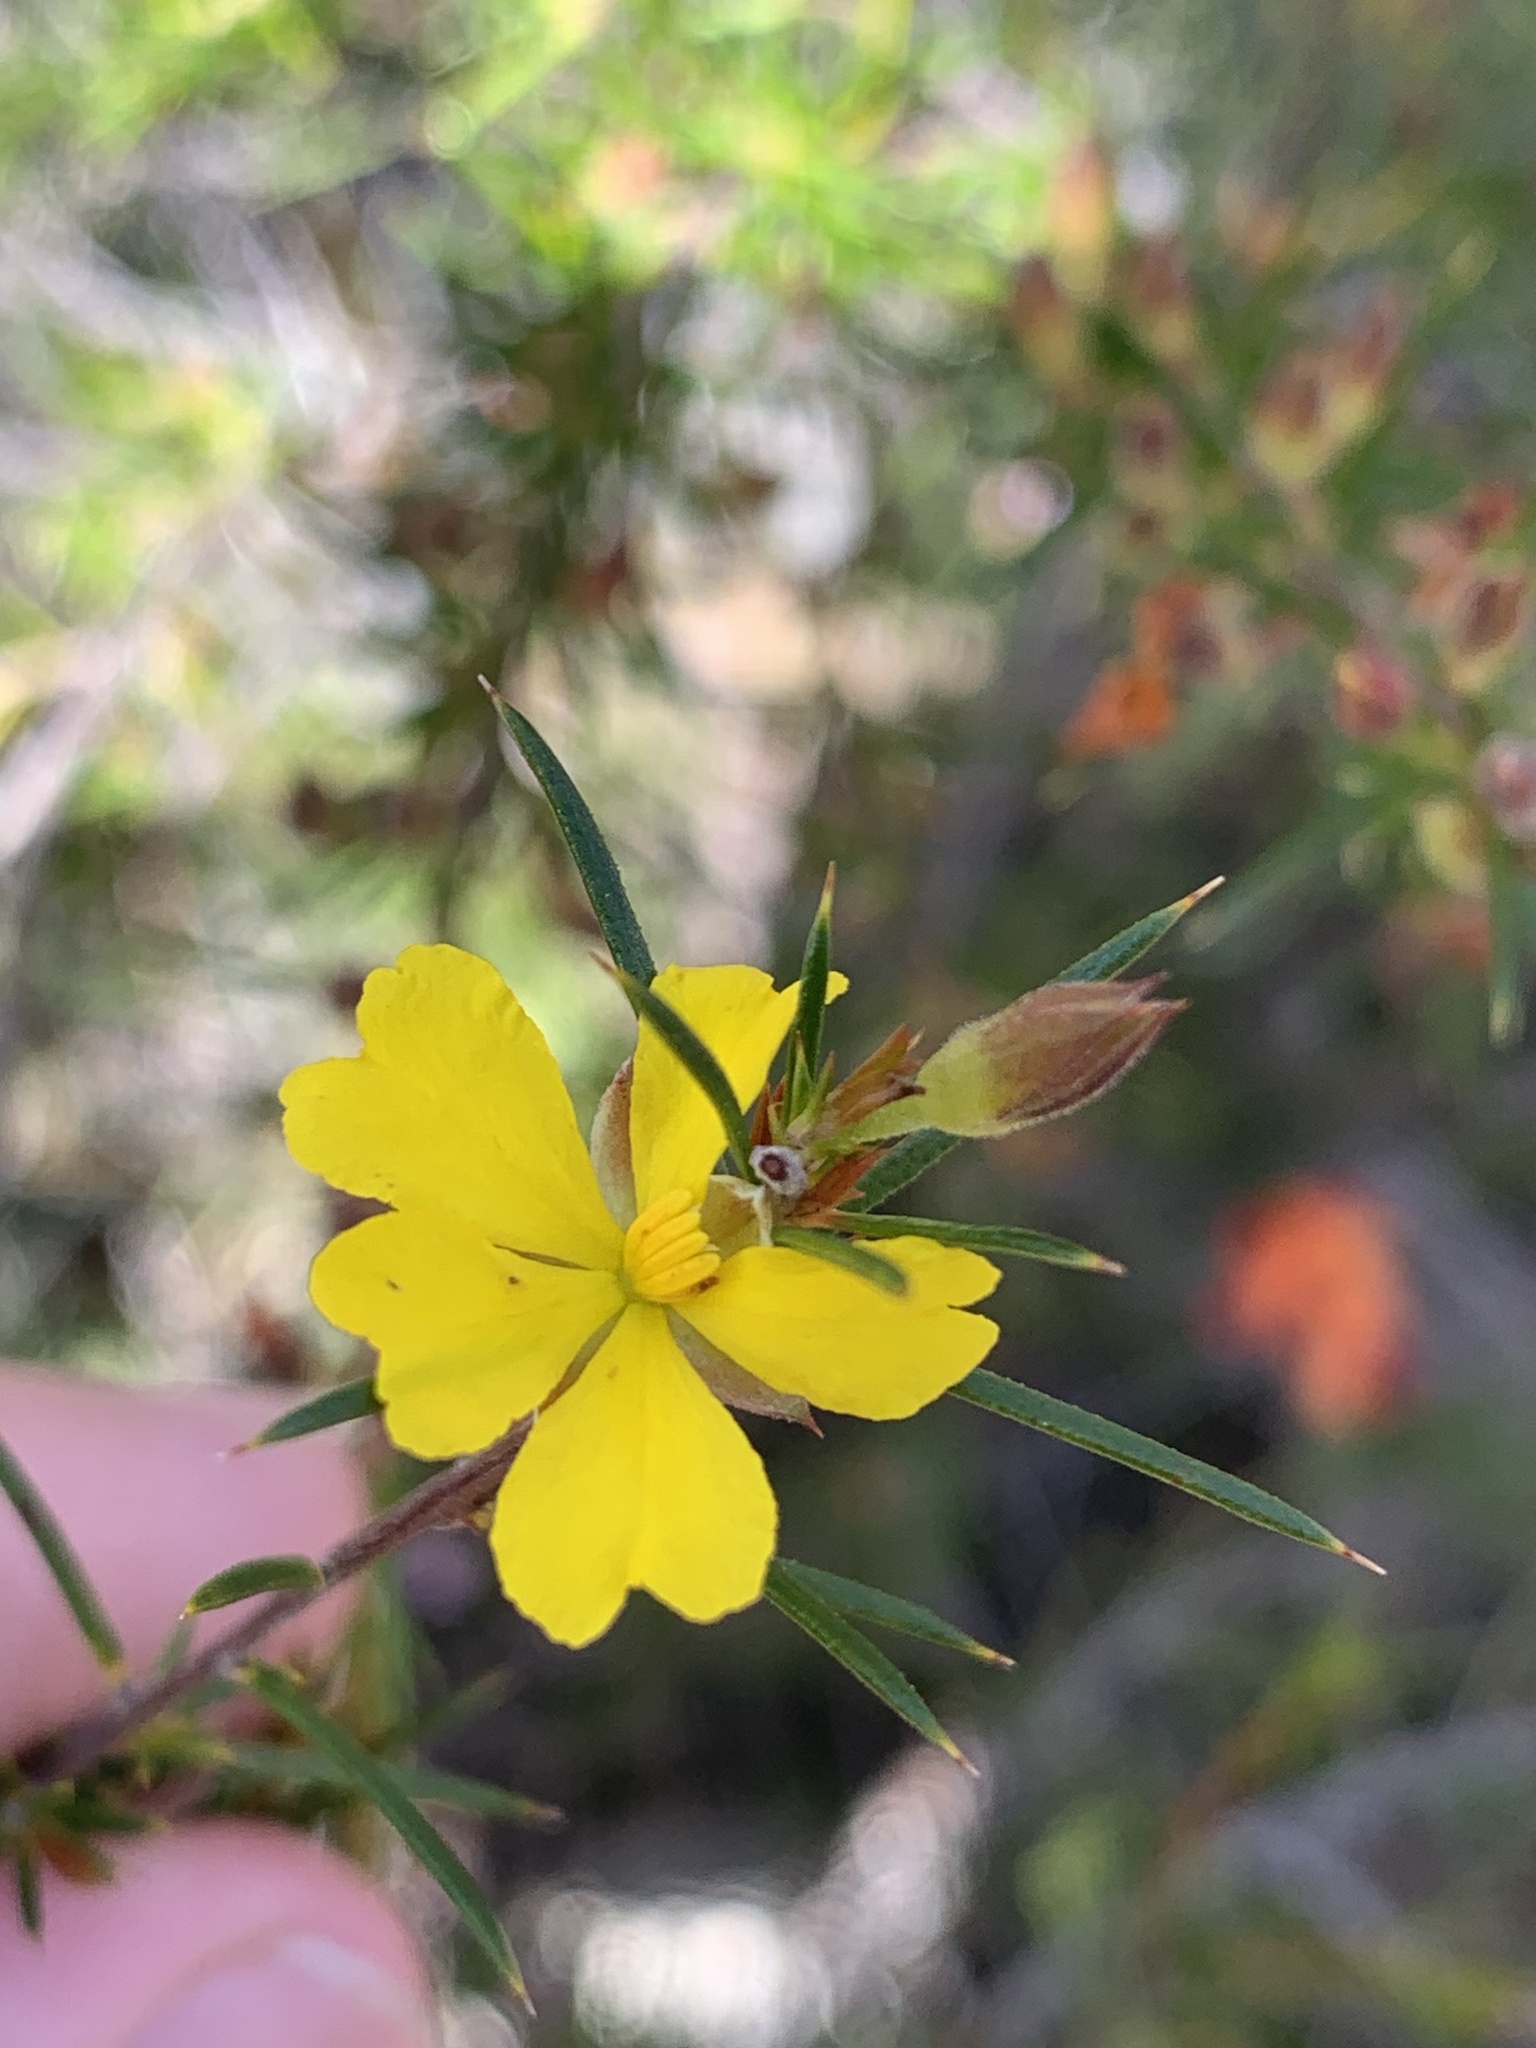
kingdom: Plantae
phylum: Tracheophyta
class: Magnoliopsida
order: Dilleniales
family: Dilleniaceae
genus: Hibbertia
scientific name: Hibbertia hamulosa
